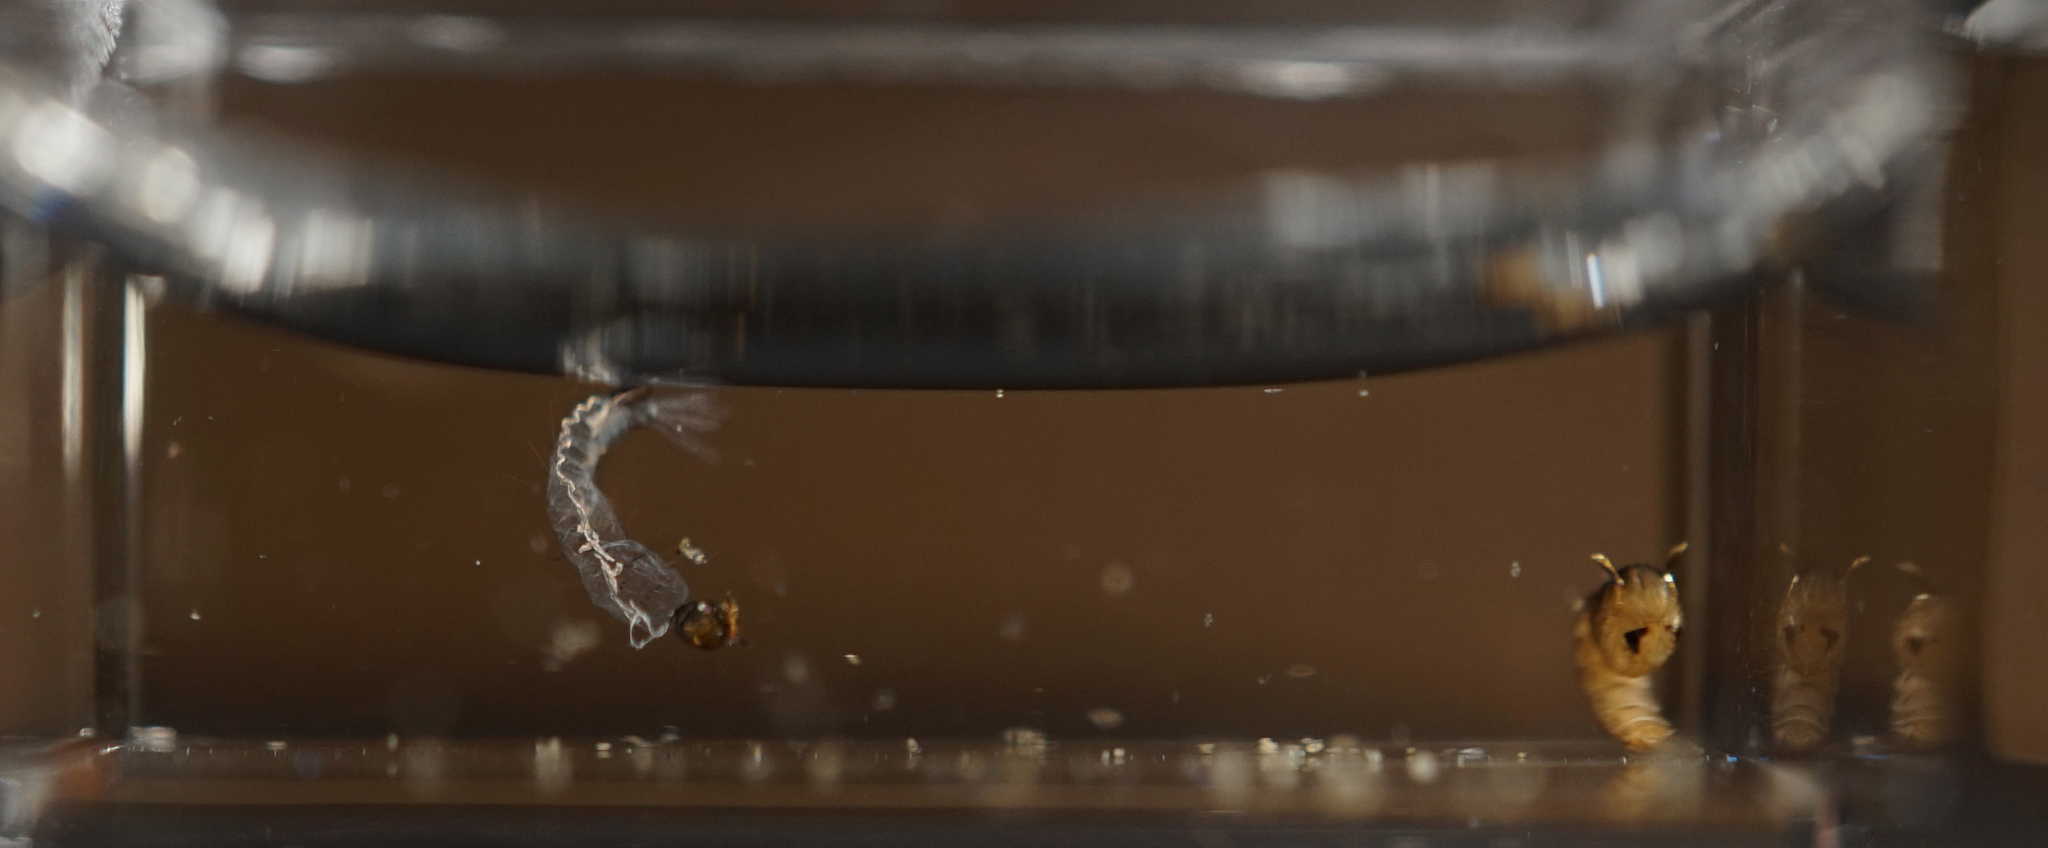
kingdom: Animalia
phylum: Arthropoda
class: Insecta
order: Diptera
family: Culicidae
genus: Aedes
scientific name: Aedes albopictus
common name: Tiger mosquito
